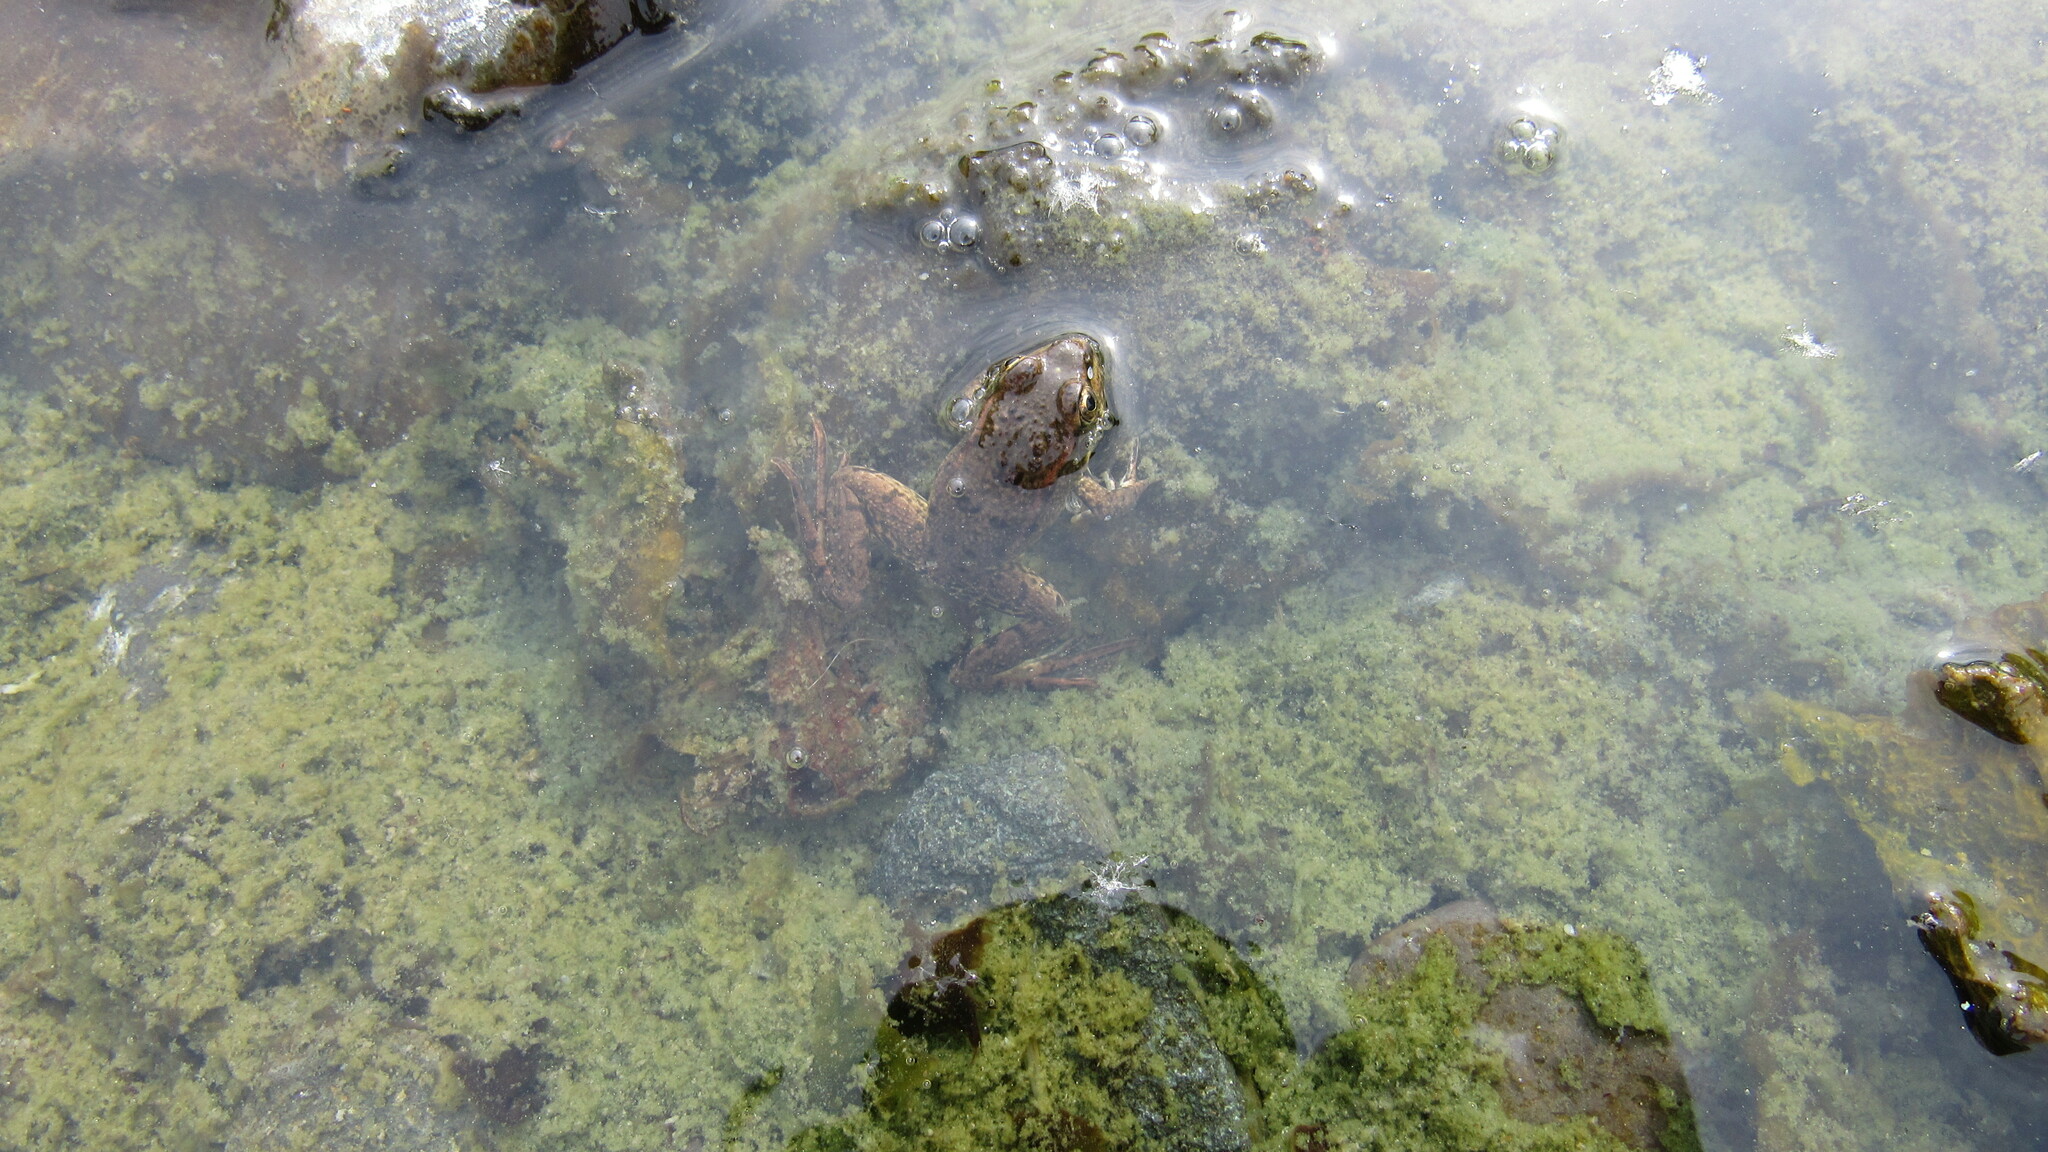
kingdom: Animalia
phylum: Chordata
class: Amphibia
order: Anura
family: Ranidae
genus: Pelophylax
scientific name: Pelophylax ridibundus
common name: Marsh frog
